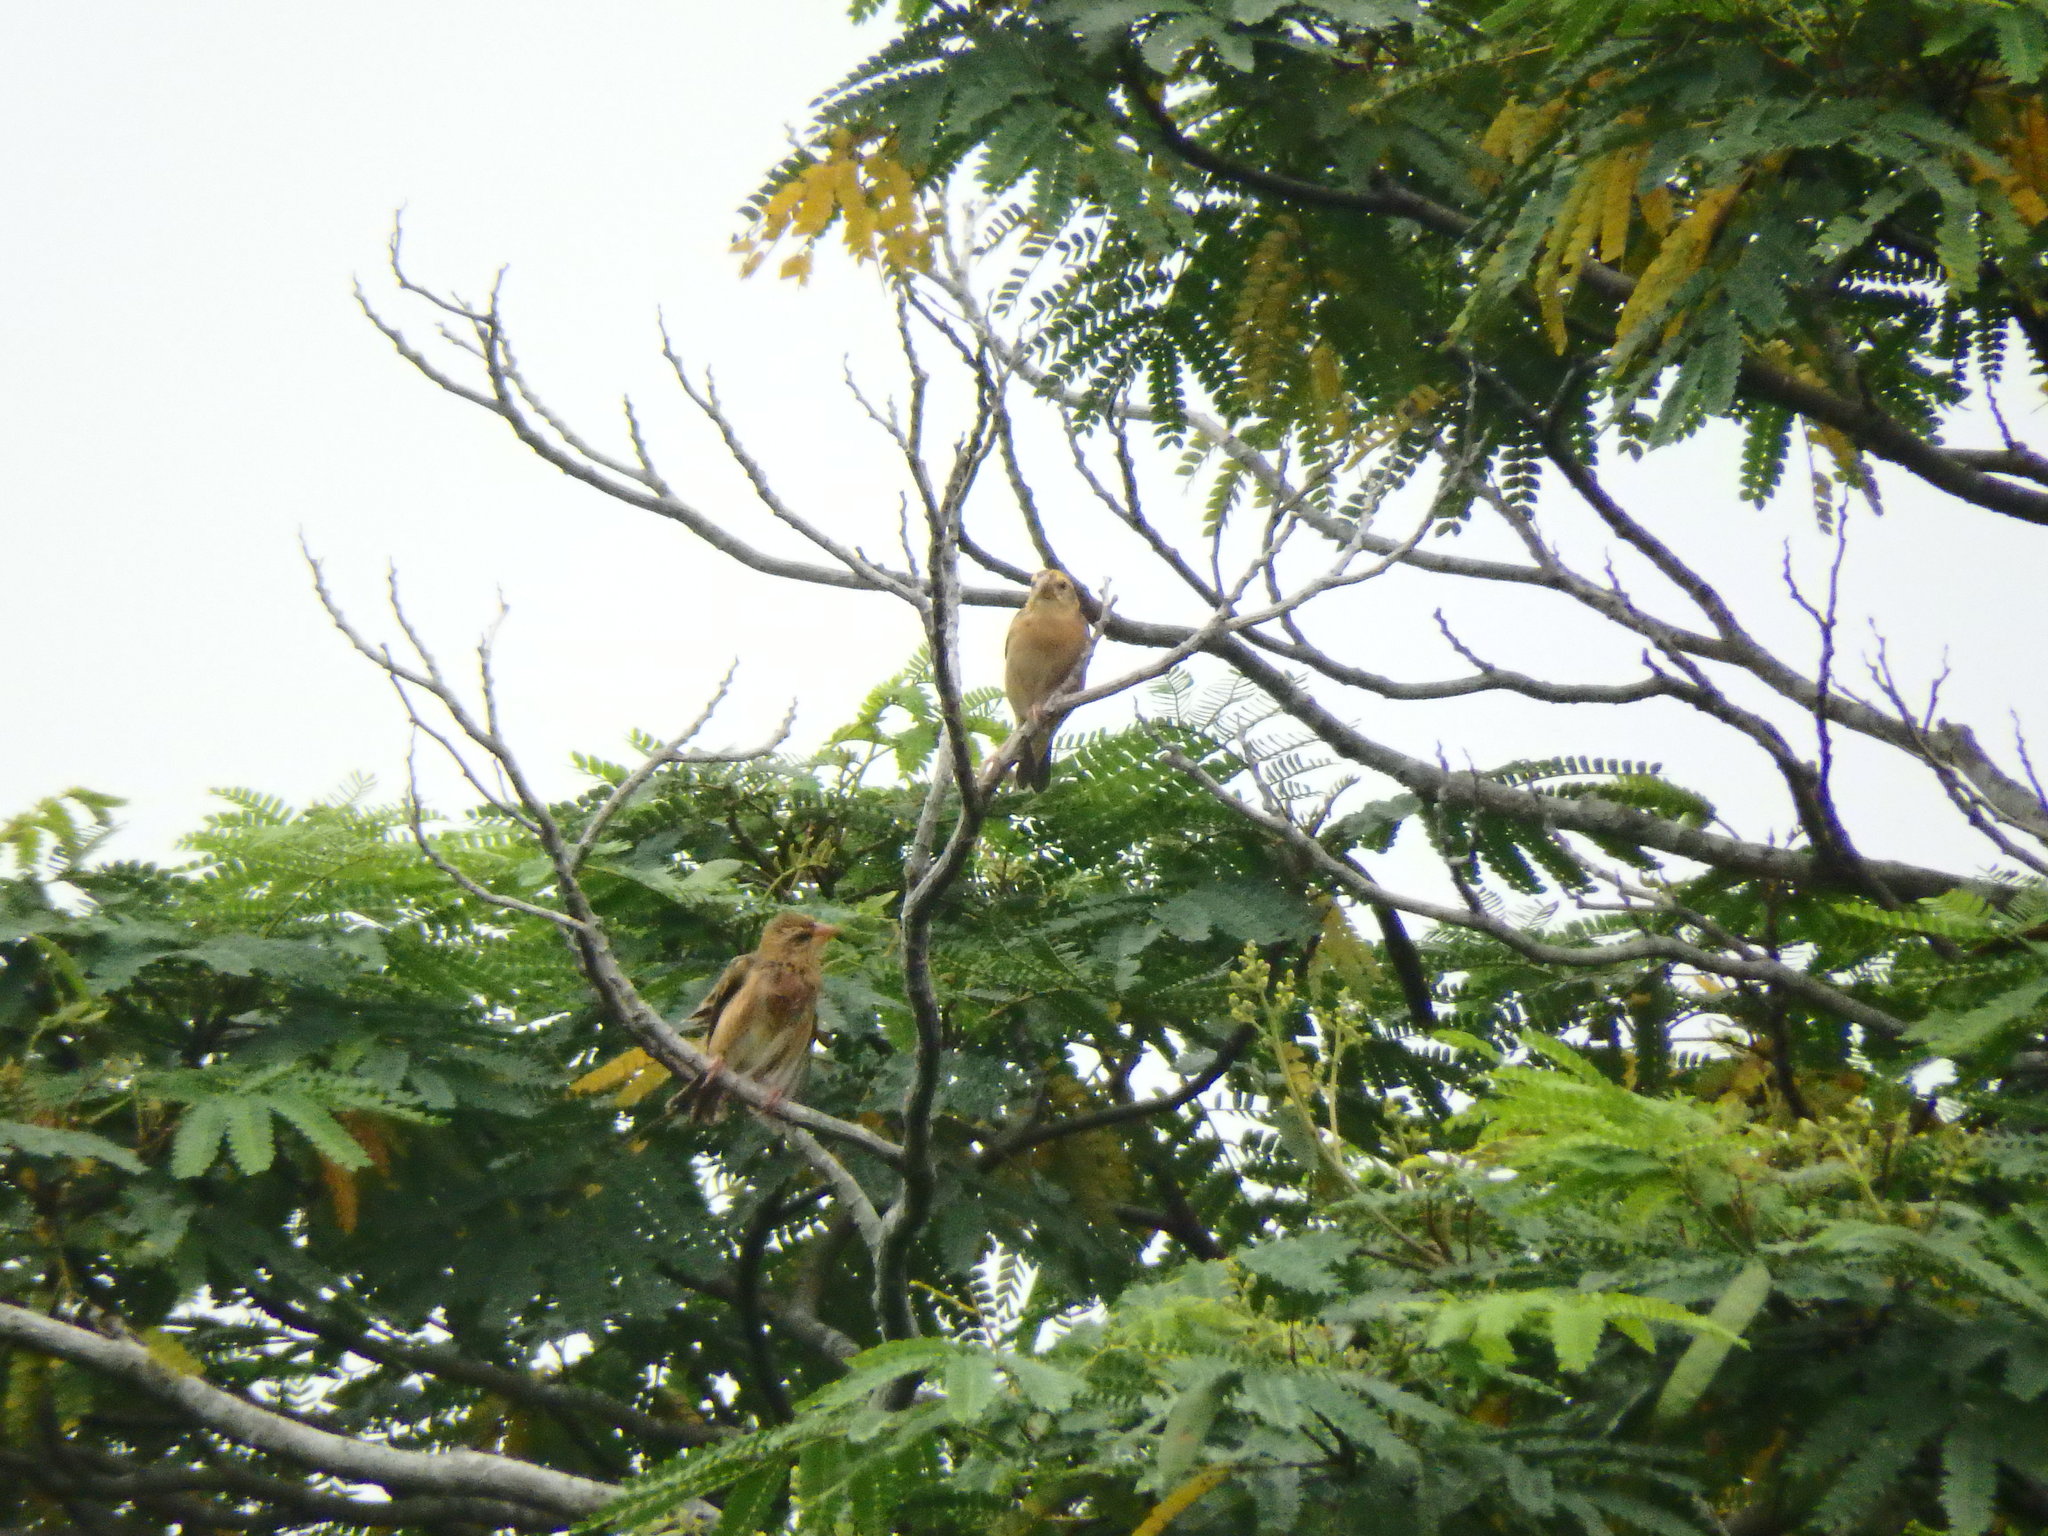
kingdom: Animalia
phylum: Chordata
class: Aves
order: Passeriformes
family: Ploceidae
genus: Ploceus
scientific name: Ploceus philippinus
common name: Baya weaver
